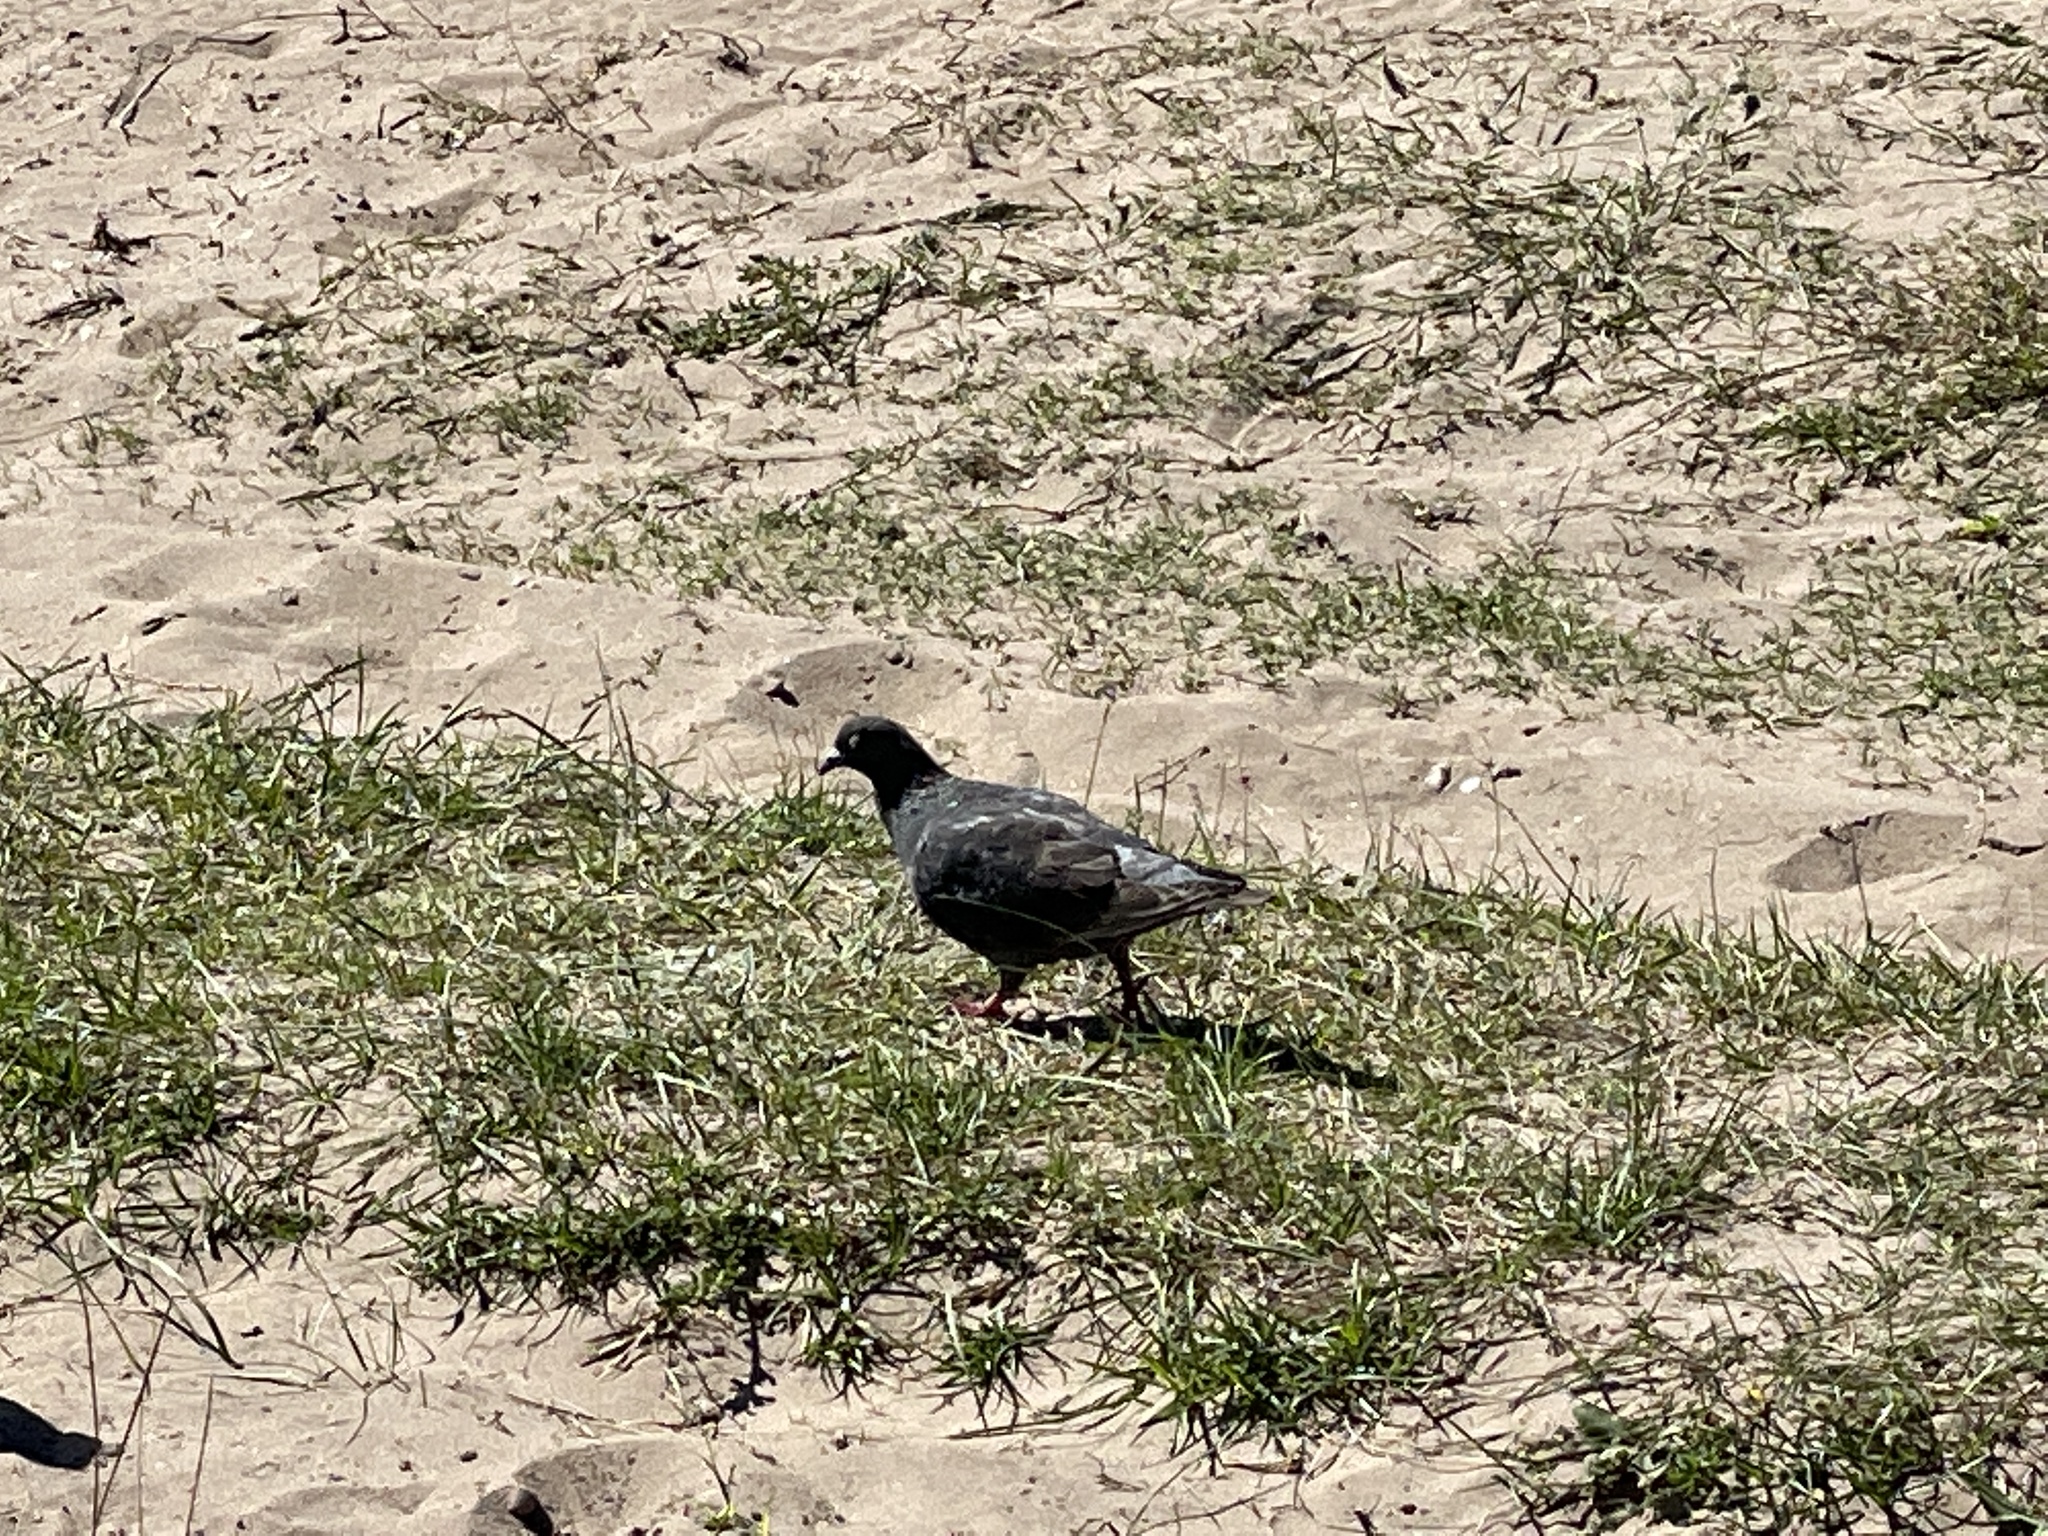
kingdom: Animalia
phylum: Chordata
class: Aves
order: Columbiformes
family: Columbidae
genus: Columba
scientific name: Columba livia
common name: Rock pigeon
